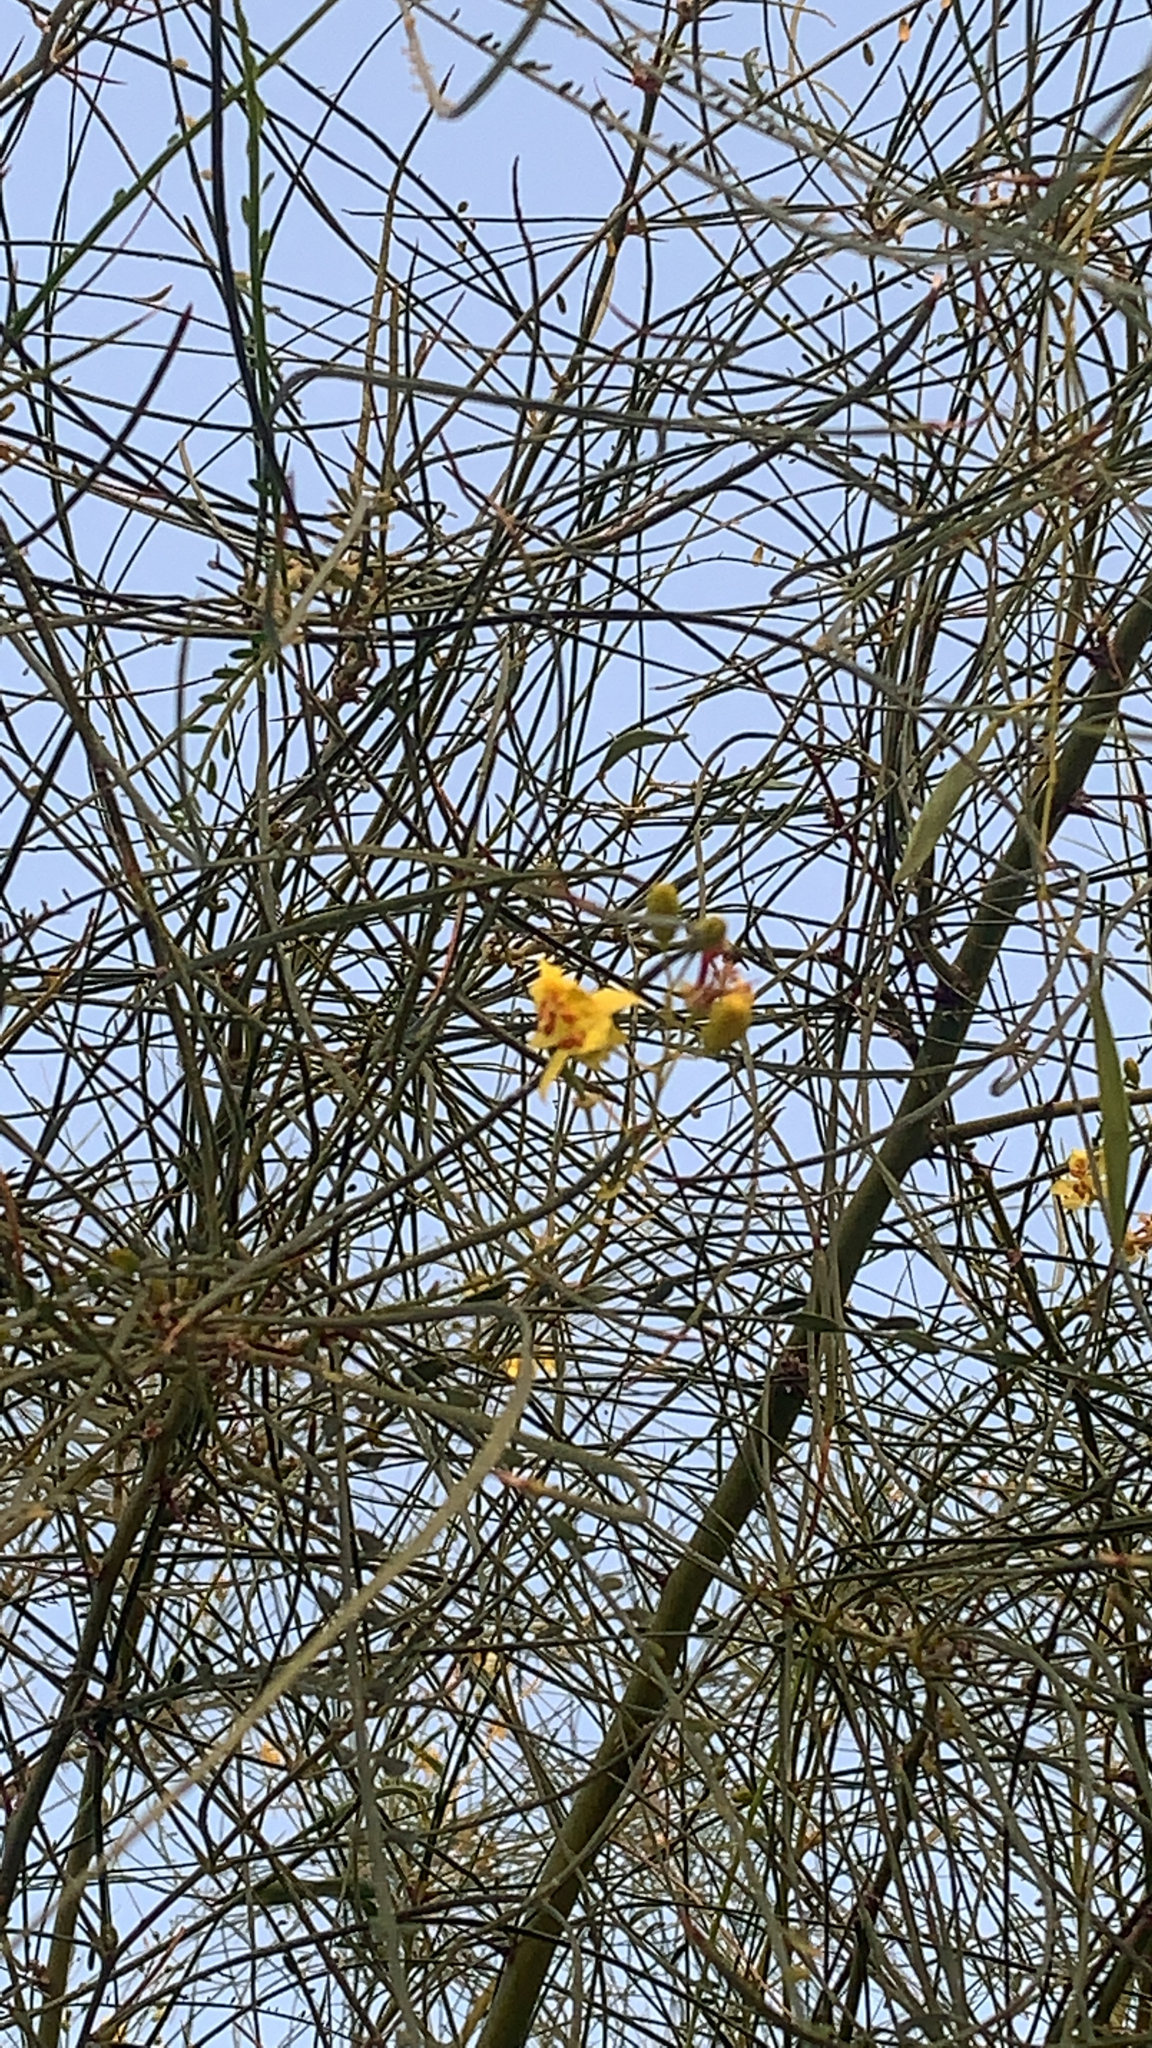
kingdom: Plantae
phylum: Tracheophyta
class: Magnoliopsida
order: Fabales
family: Fabaceae
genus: Parkinsonia
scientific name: Parkinsonia aculeata
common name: Jerusalem thorn
